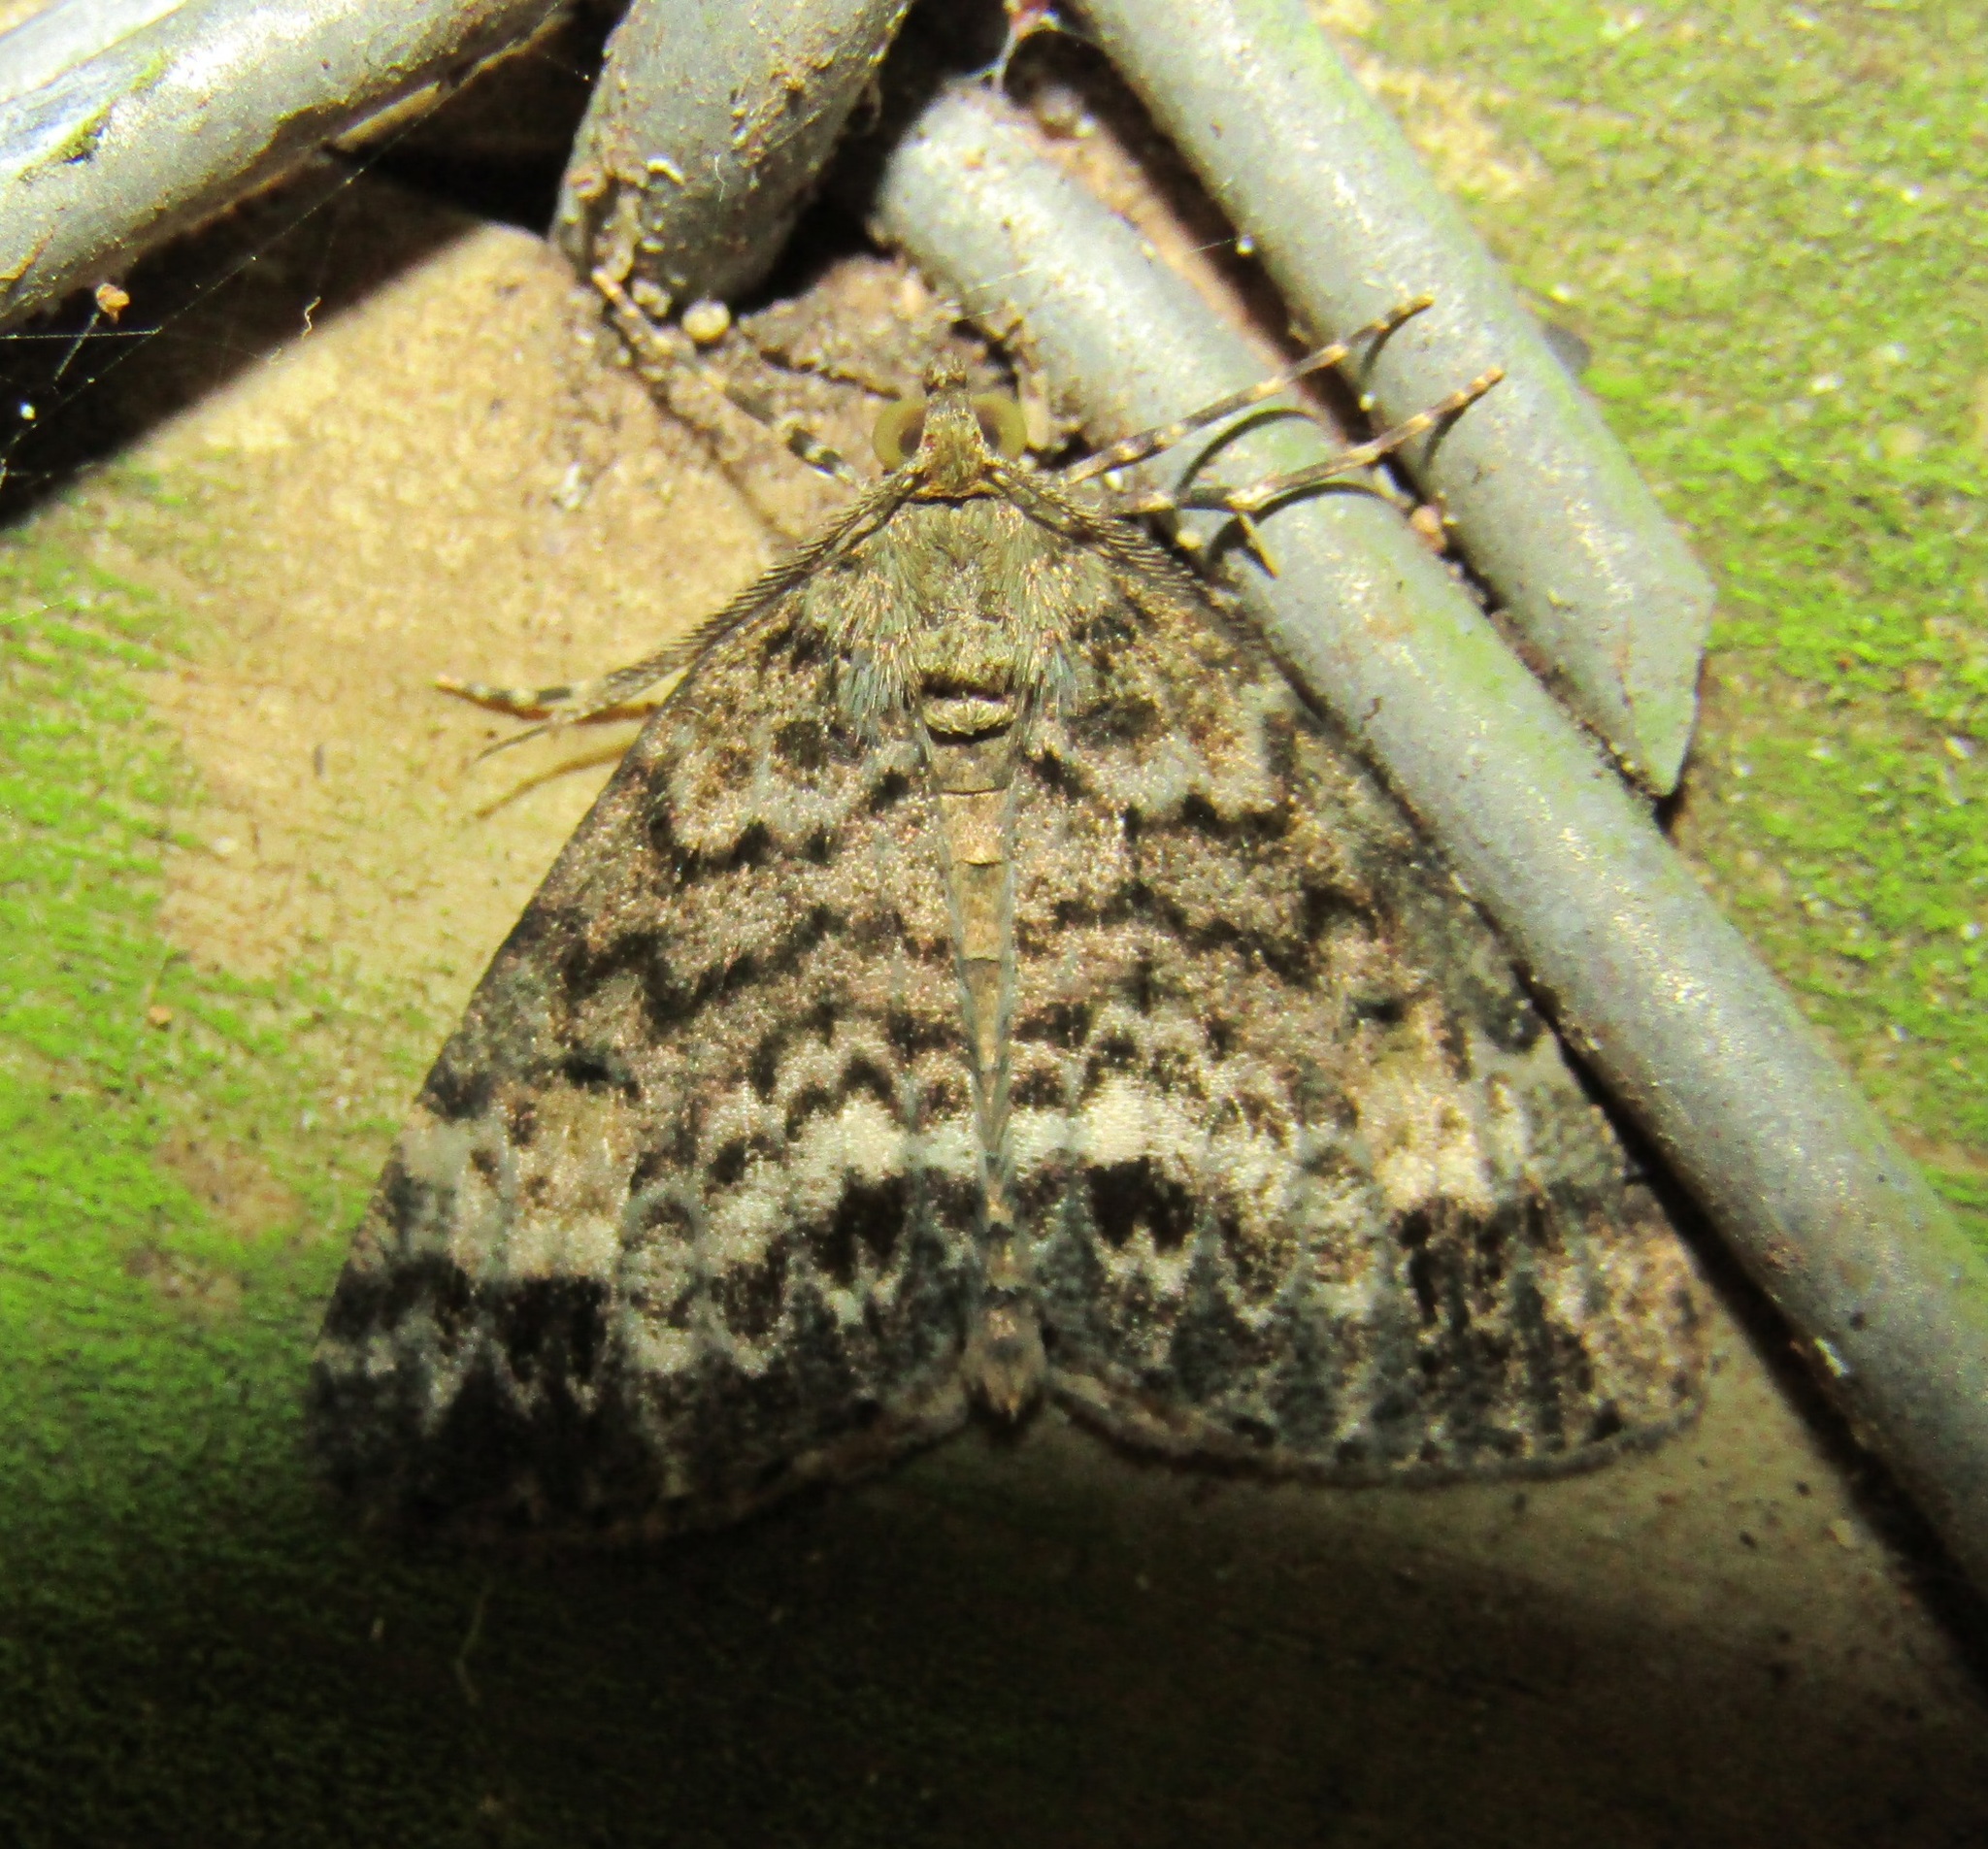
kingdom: Animalia
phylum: Arthropoda
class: Insecta
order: Lepidoptera
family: Geometridae
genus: Pseudocoremia
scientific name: Pseudocoremia indistincta
